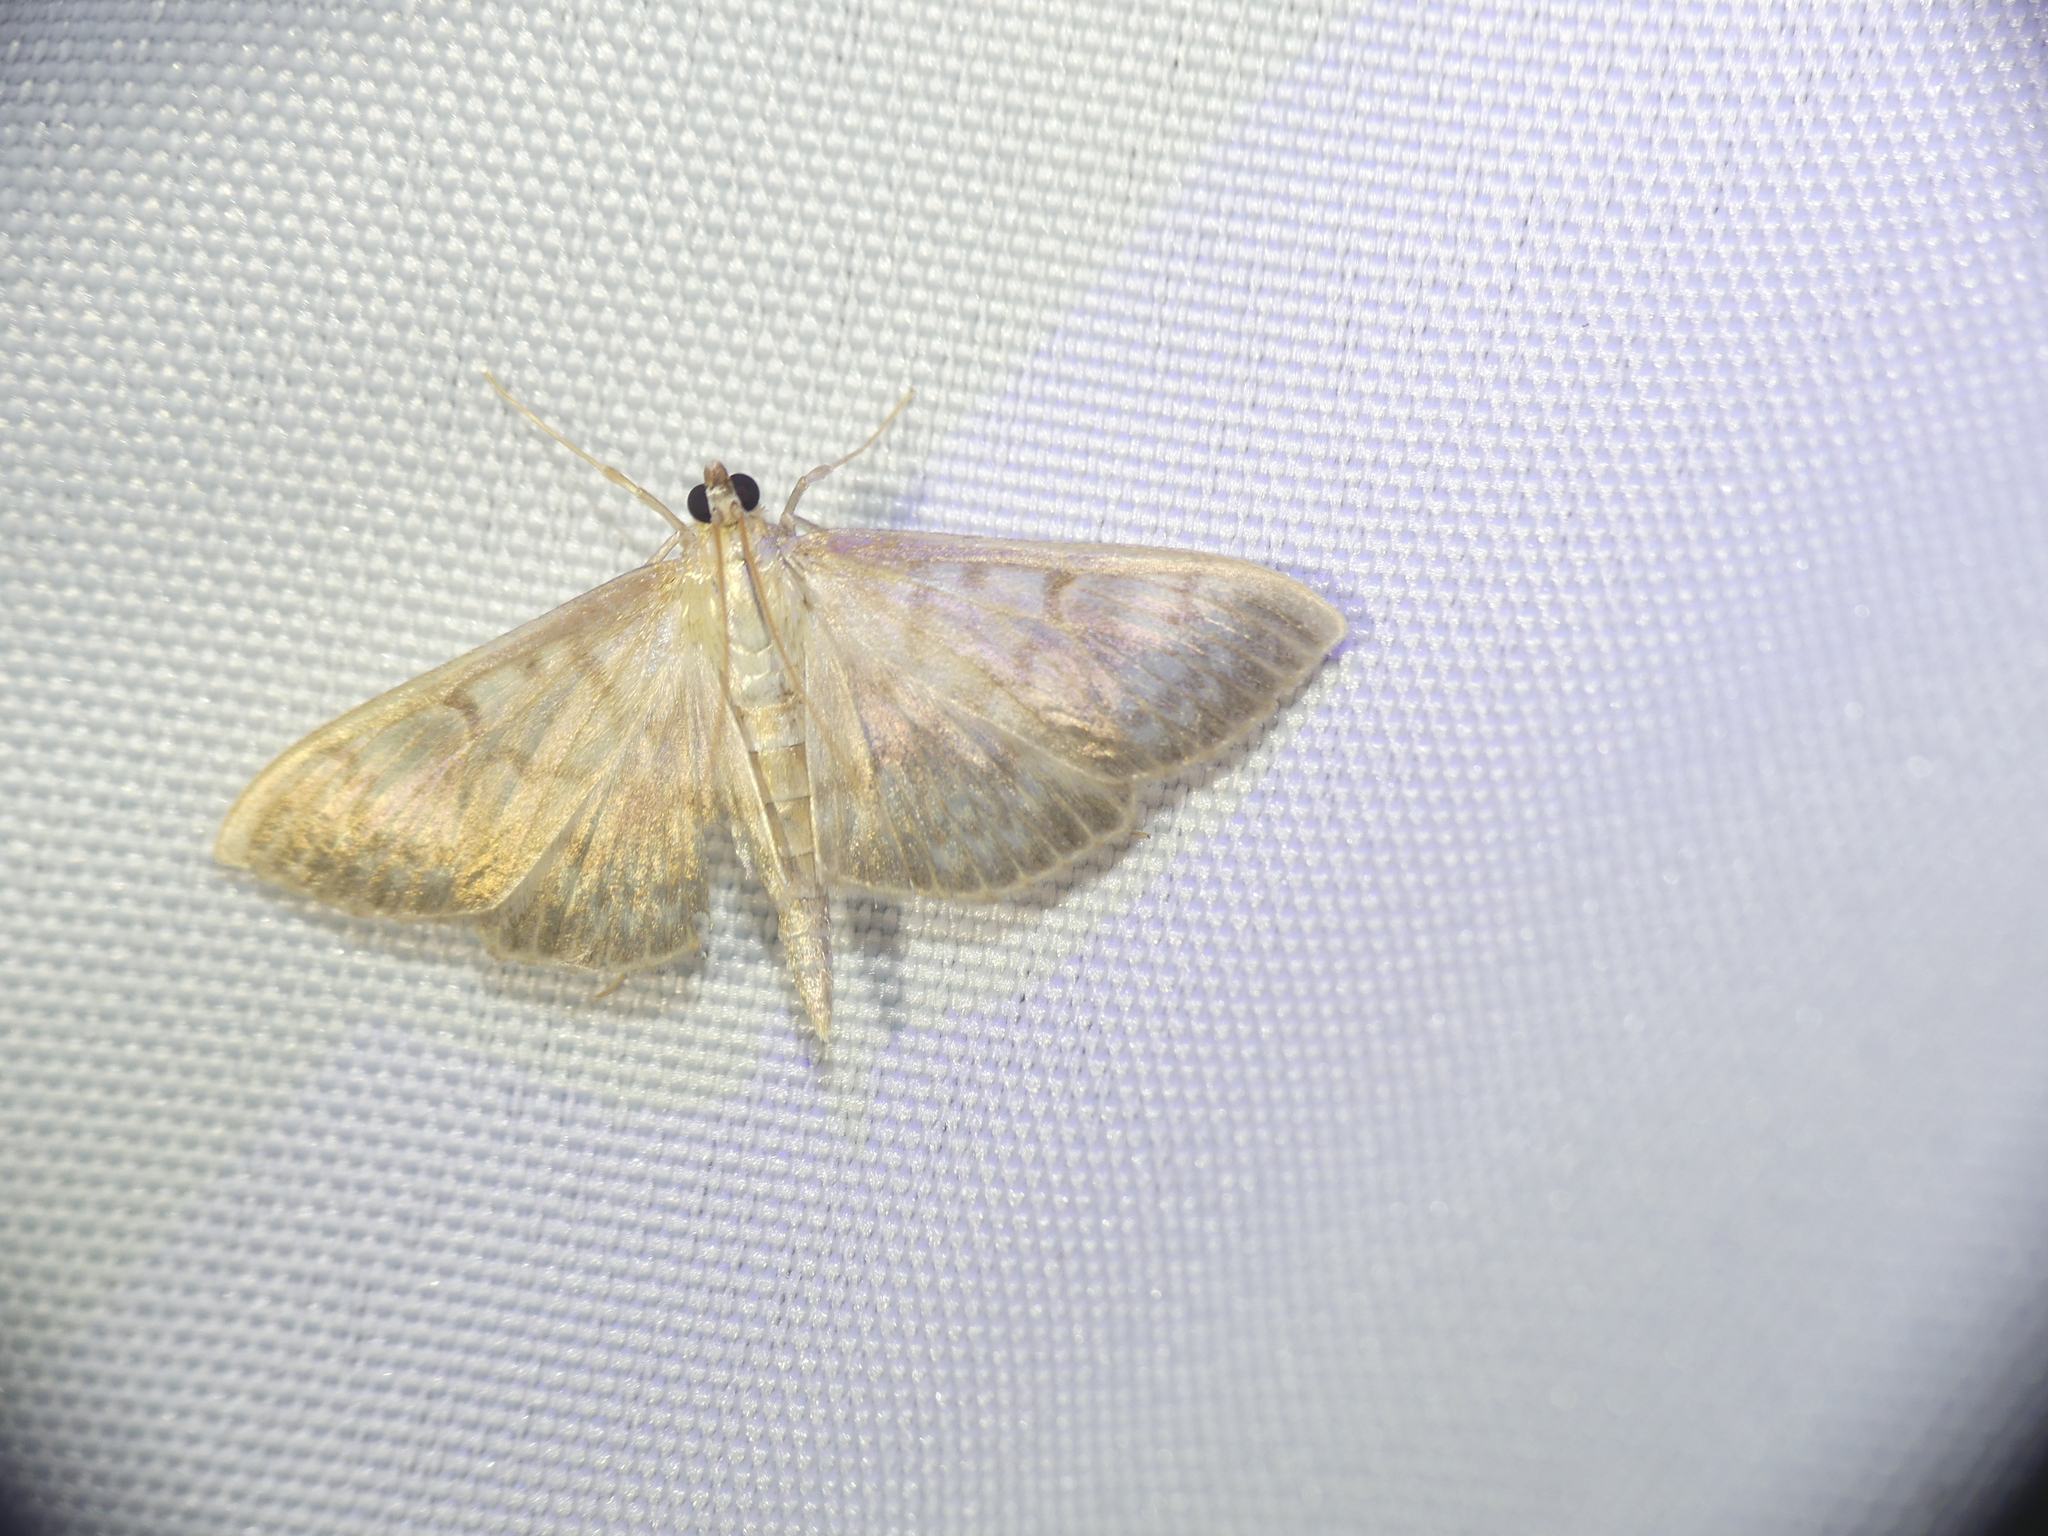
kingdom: Animalia
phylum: Arthropoda
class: Insecta
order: Lepidoptera
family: Crambidae
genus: Patania
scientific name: Patania ruralis
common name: Mother of pearl
